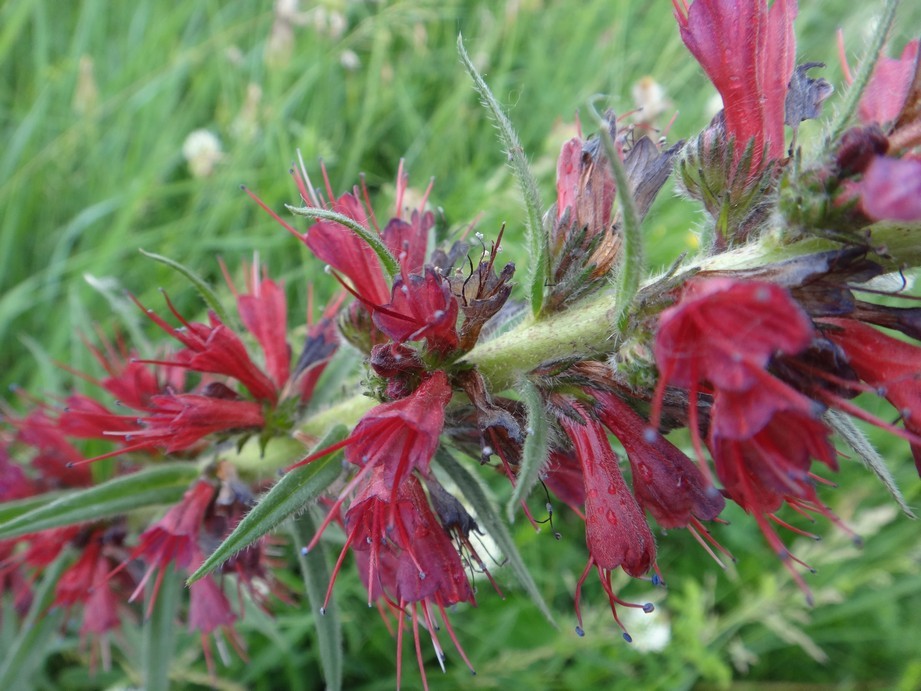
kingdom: Plantae
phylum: Tracheophyta
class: Magnoliopsida
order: Boraginales
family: Boraginaceae
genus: Pontechium
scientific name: Pontechium maculatum
